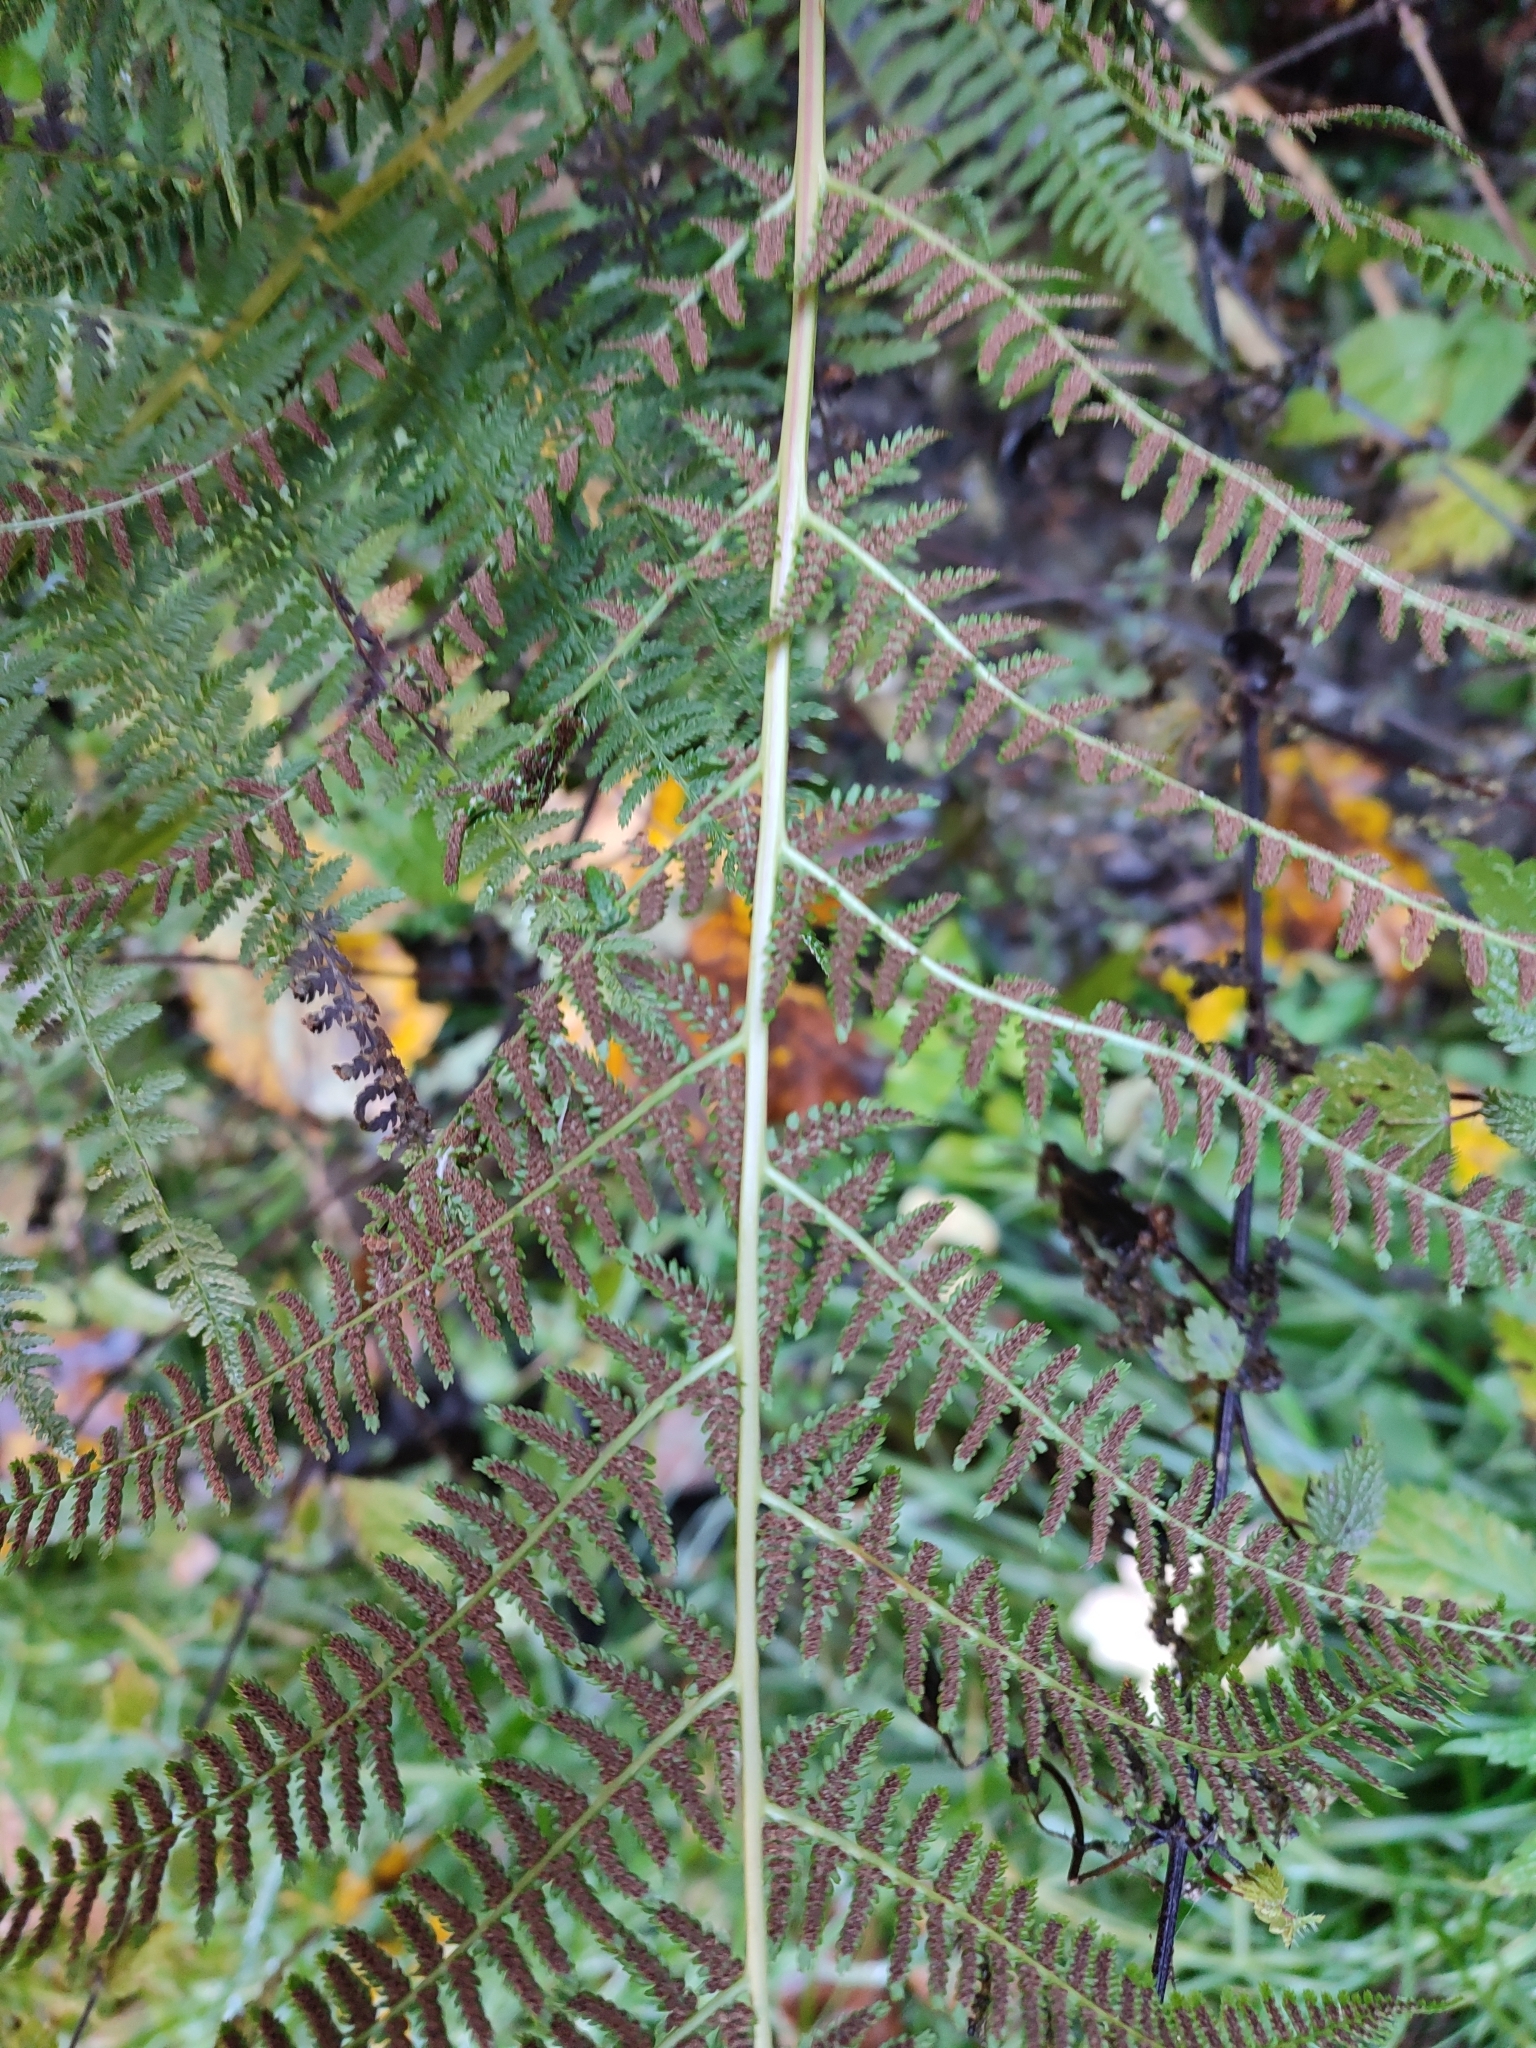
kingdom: Plantae
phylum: Tracheophyta
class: Polypodiopsida
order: Polypodiales
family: Athyriaceae
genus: Athyrium
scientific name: Athyrium filix-femina
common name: Lady fern
